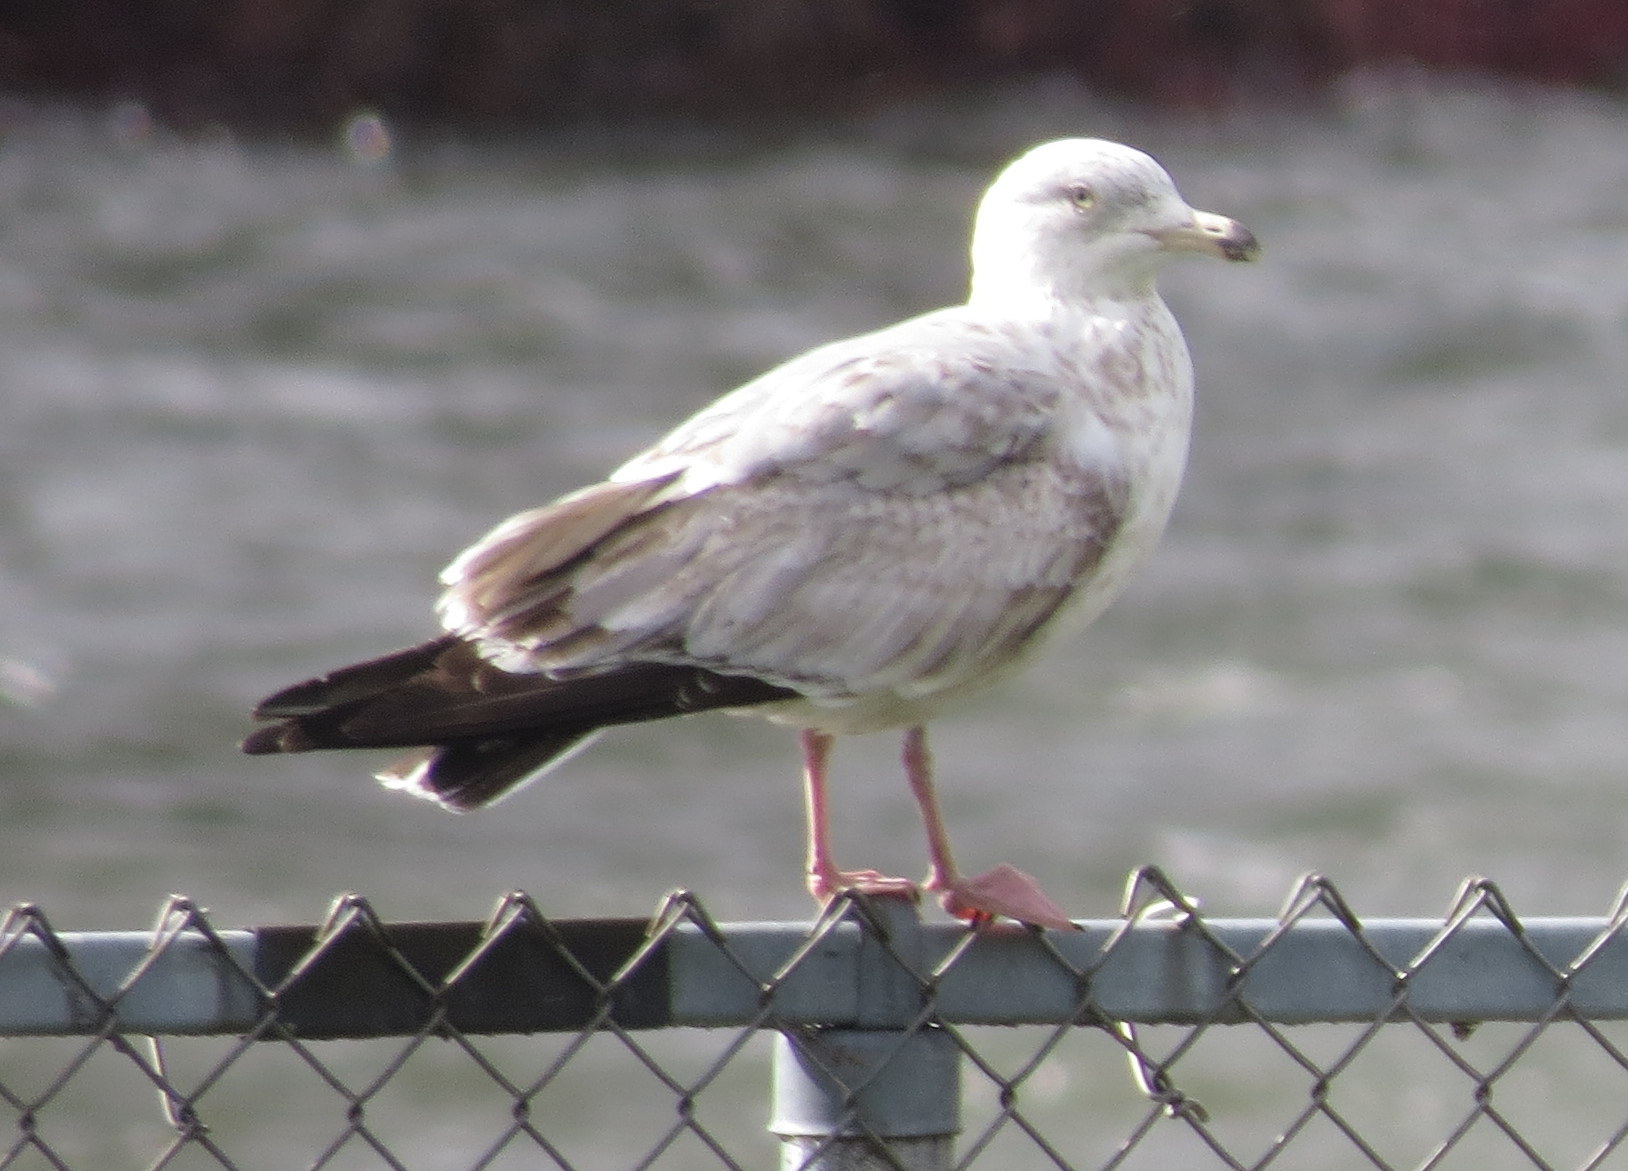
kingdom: Animalia
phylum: Chordata
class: Aves
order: Charadriiformes
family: Laridae
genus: Larus
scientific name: Larus argentatus
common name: Herring gull
